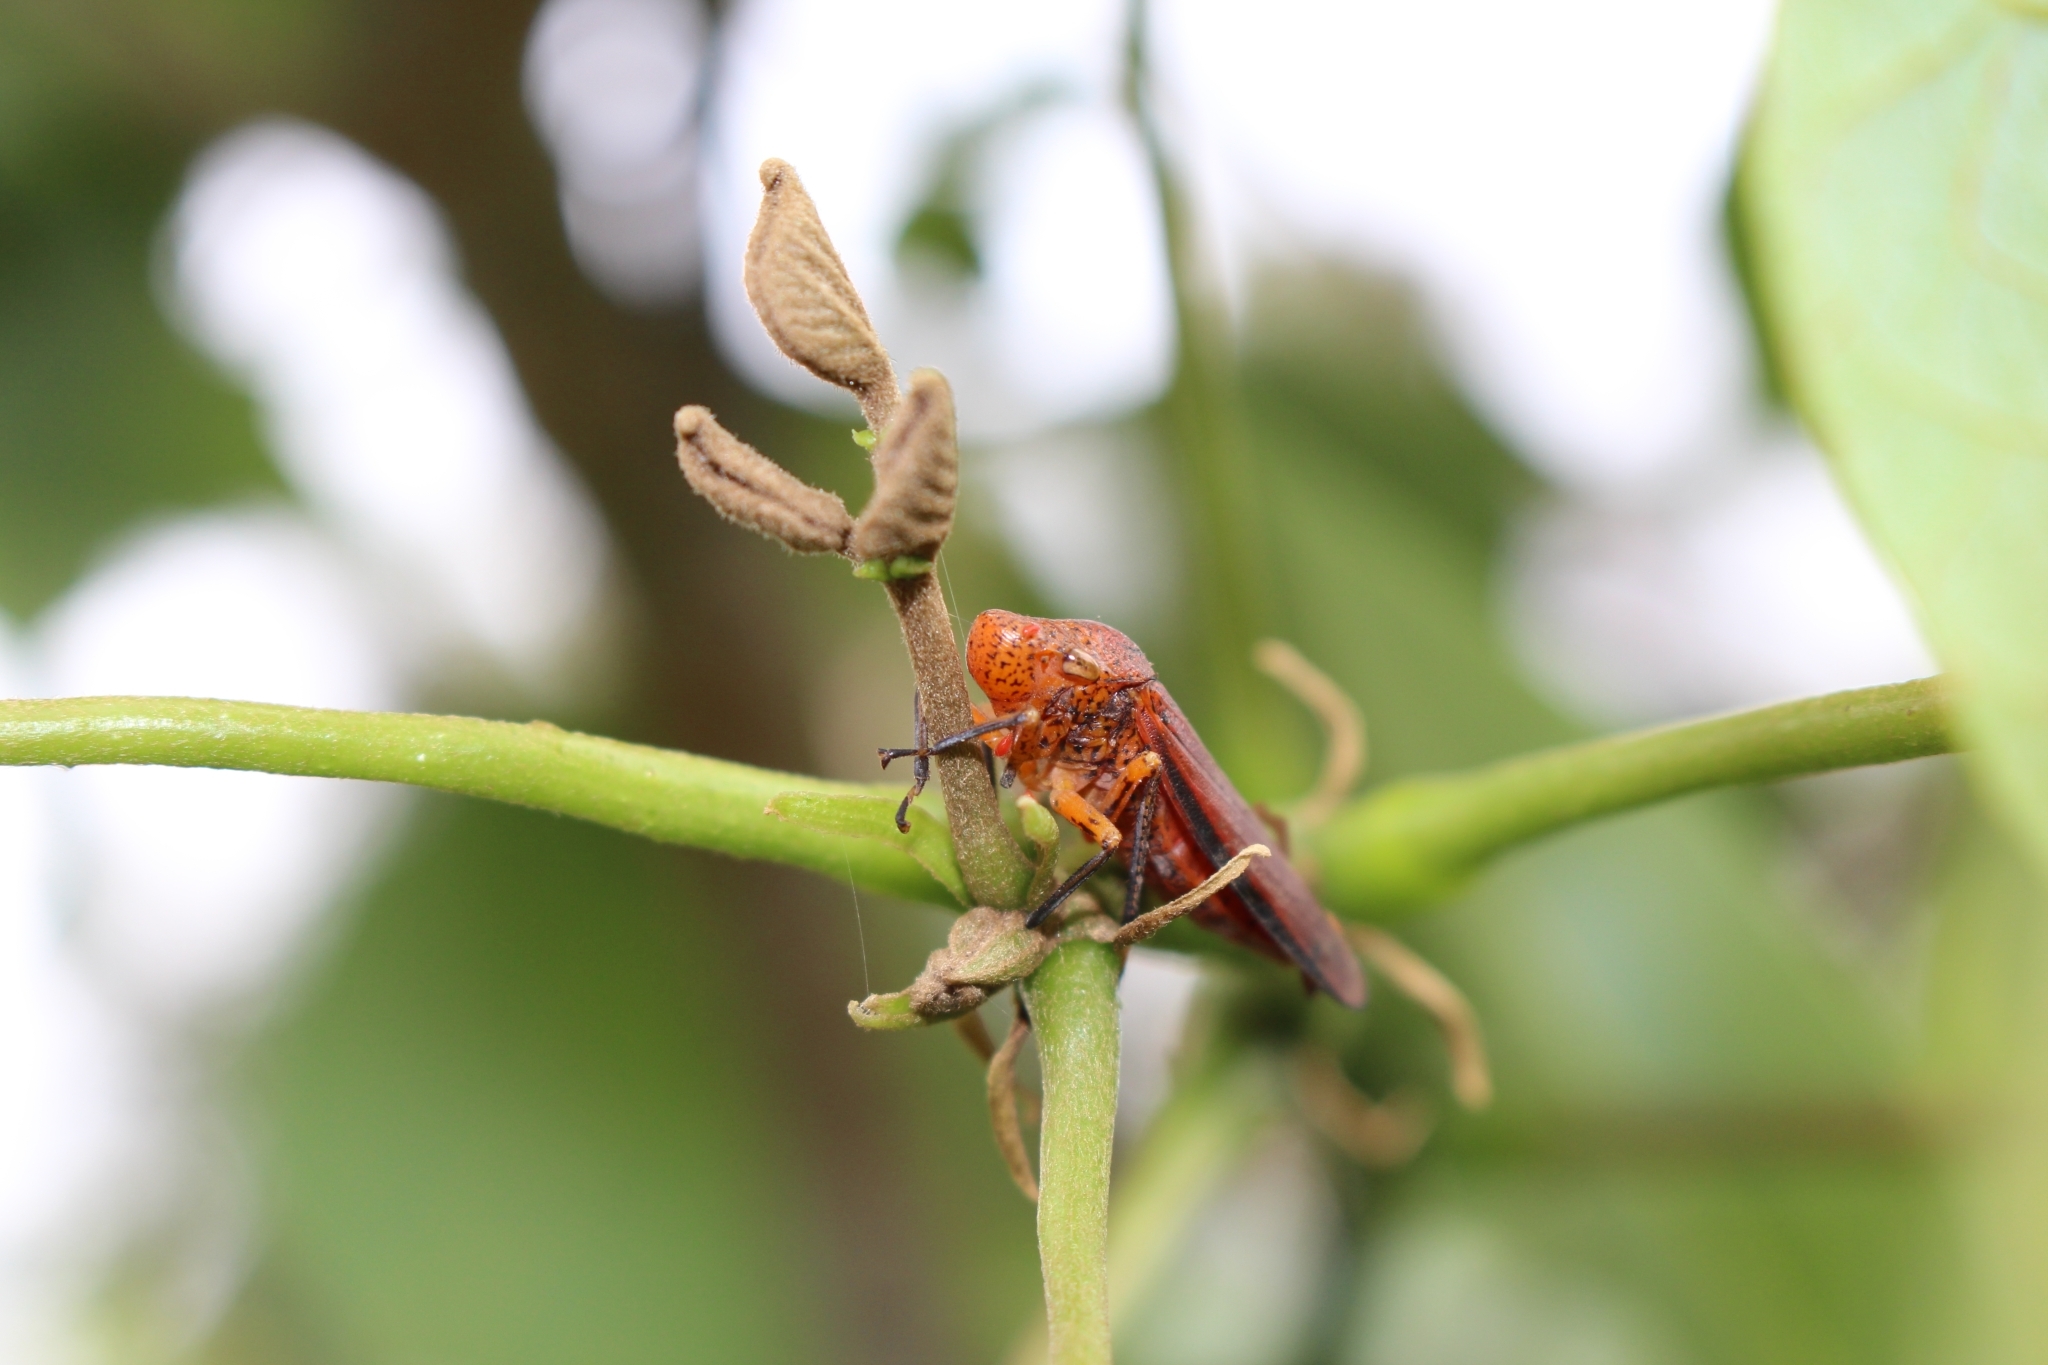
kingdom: Animalia
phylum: Arthropoda
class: Insecta
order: Hemiptera
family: Cicadellidae
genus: Cyrtodisca
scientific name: Cyrtodisca major
